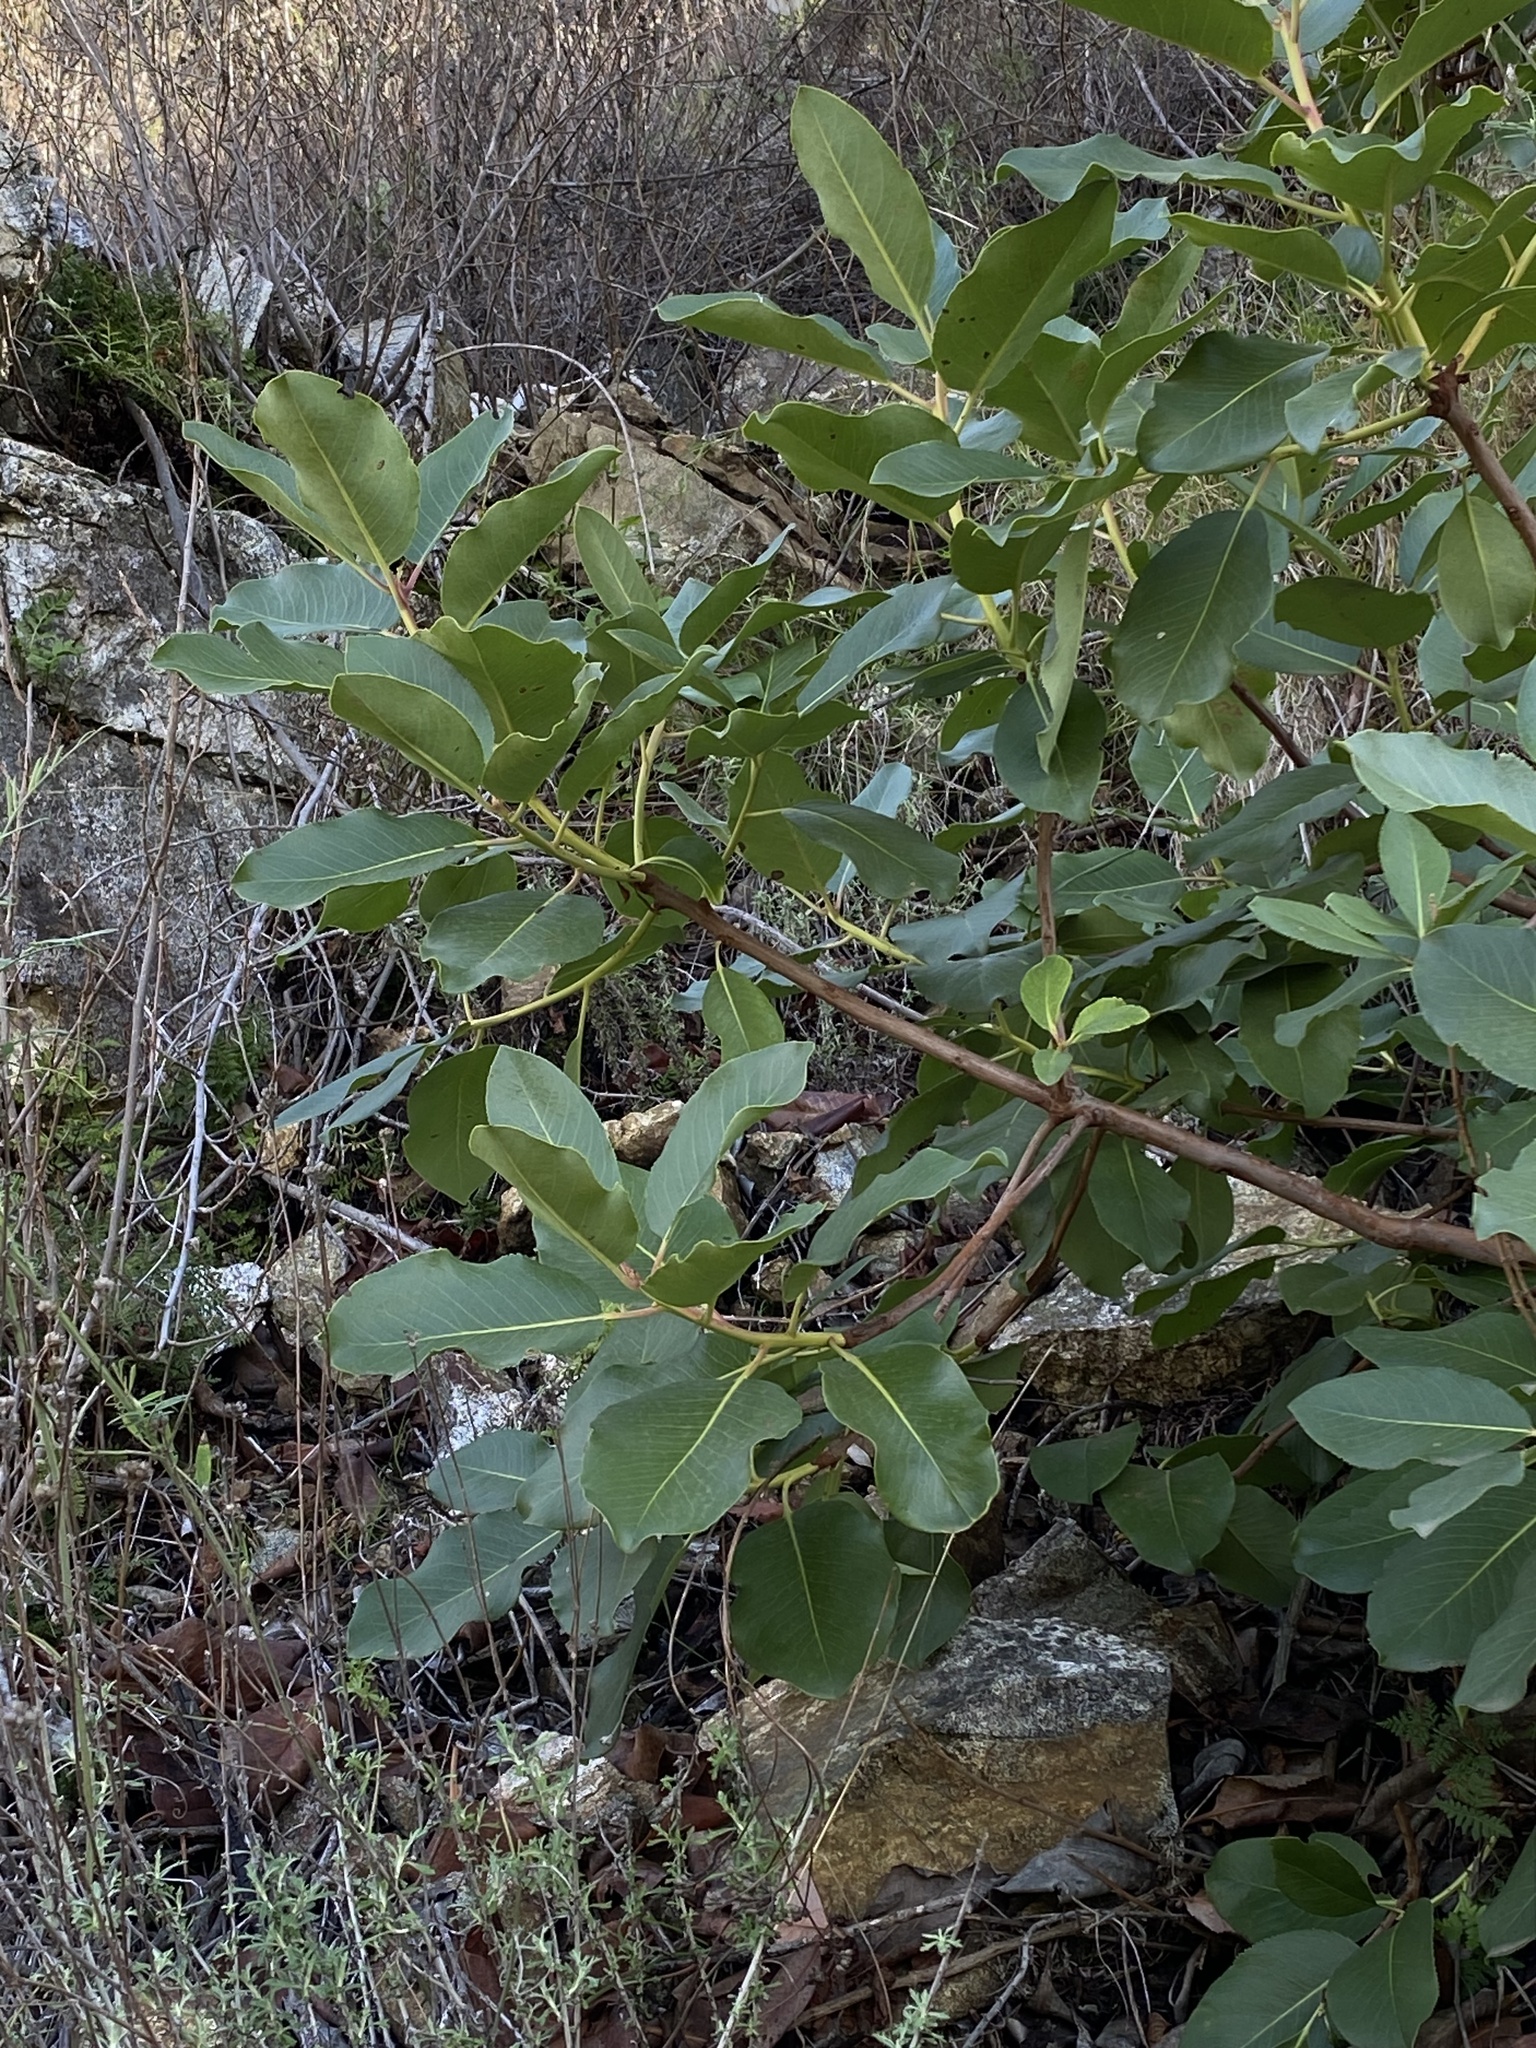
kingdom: Plantae
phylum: Tracheophyta
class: Magnoliopsida
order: Ericales
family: Ericaceae
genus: Arbutus
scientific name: Arbutus menziesii
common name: Pacific madrone
